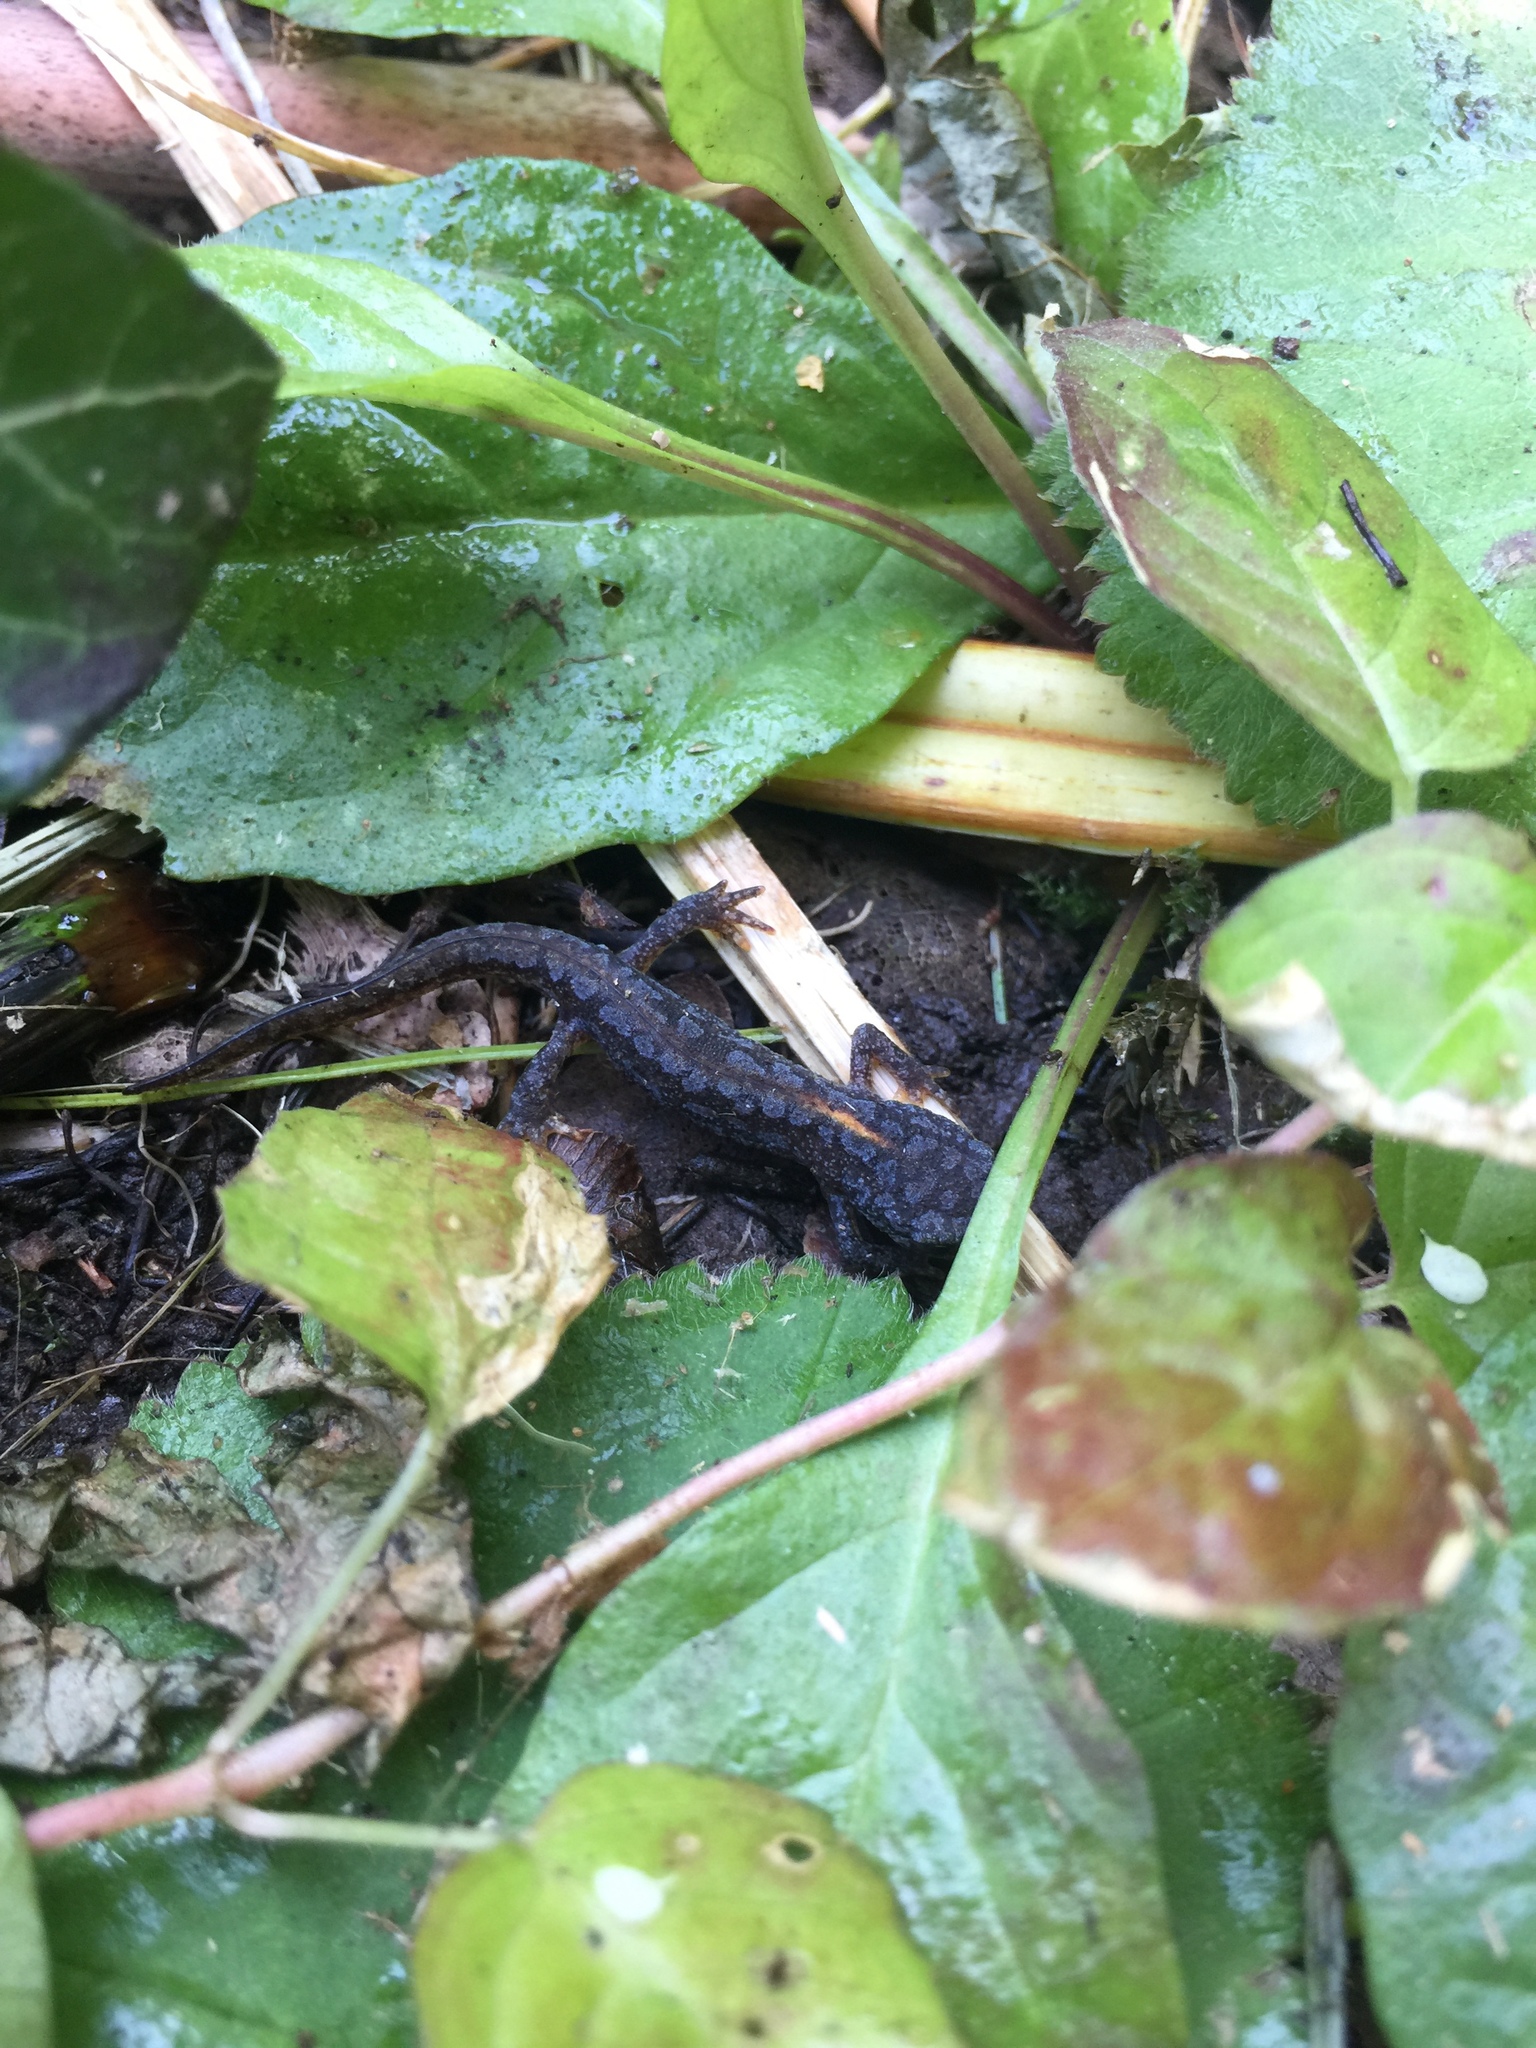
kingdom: Animalia
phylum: Chordata
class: Amphibia
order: Caudata
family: Salamandridae
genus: Ichthyosaura
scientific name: Ichthyosaura alpestris
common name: Alpine newt
